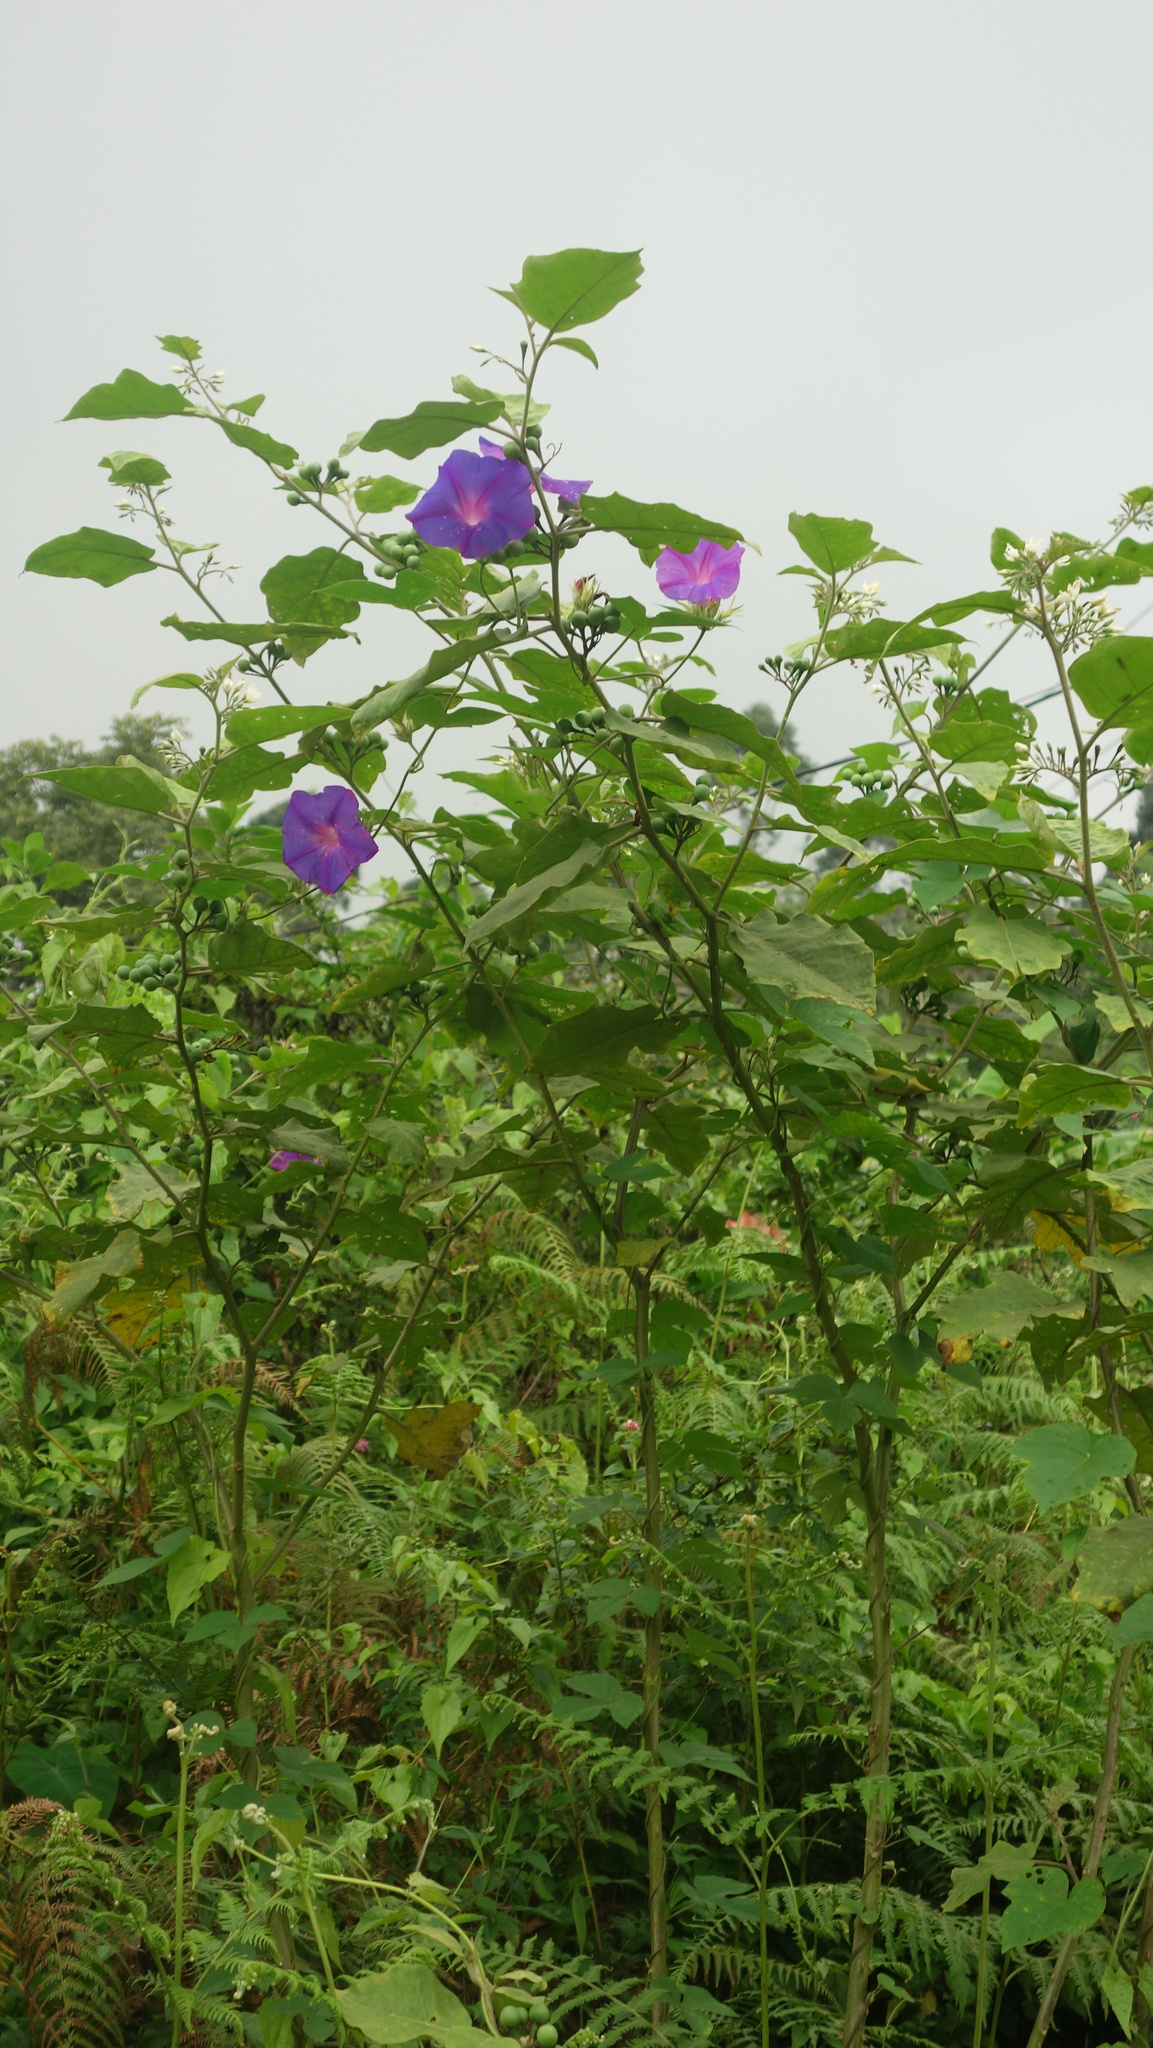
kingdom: Plantae
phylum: Tracheophyta
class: Magnoliopsida
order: Solanales
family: Convolvulaceae
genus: Ipomoea
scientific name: Ipomoea indica
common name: Blue dawnflower
